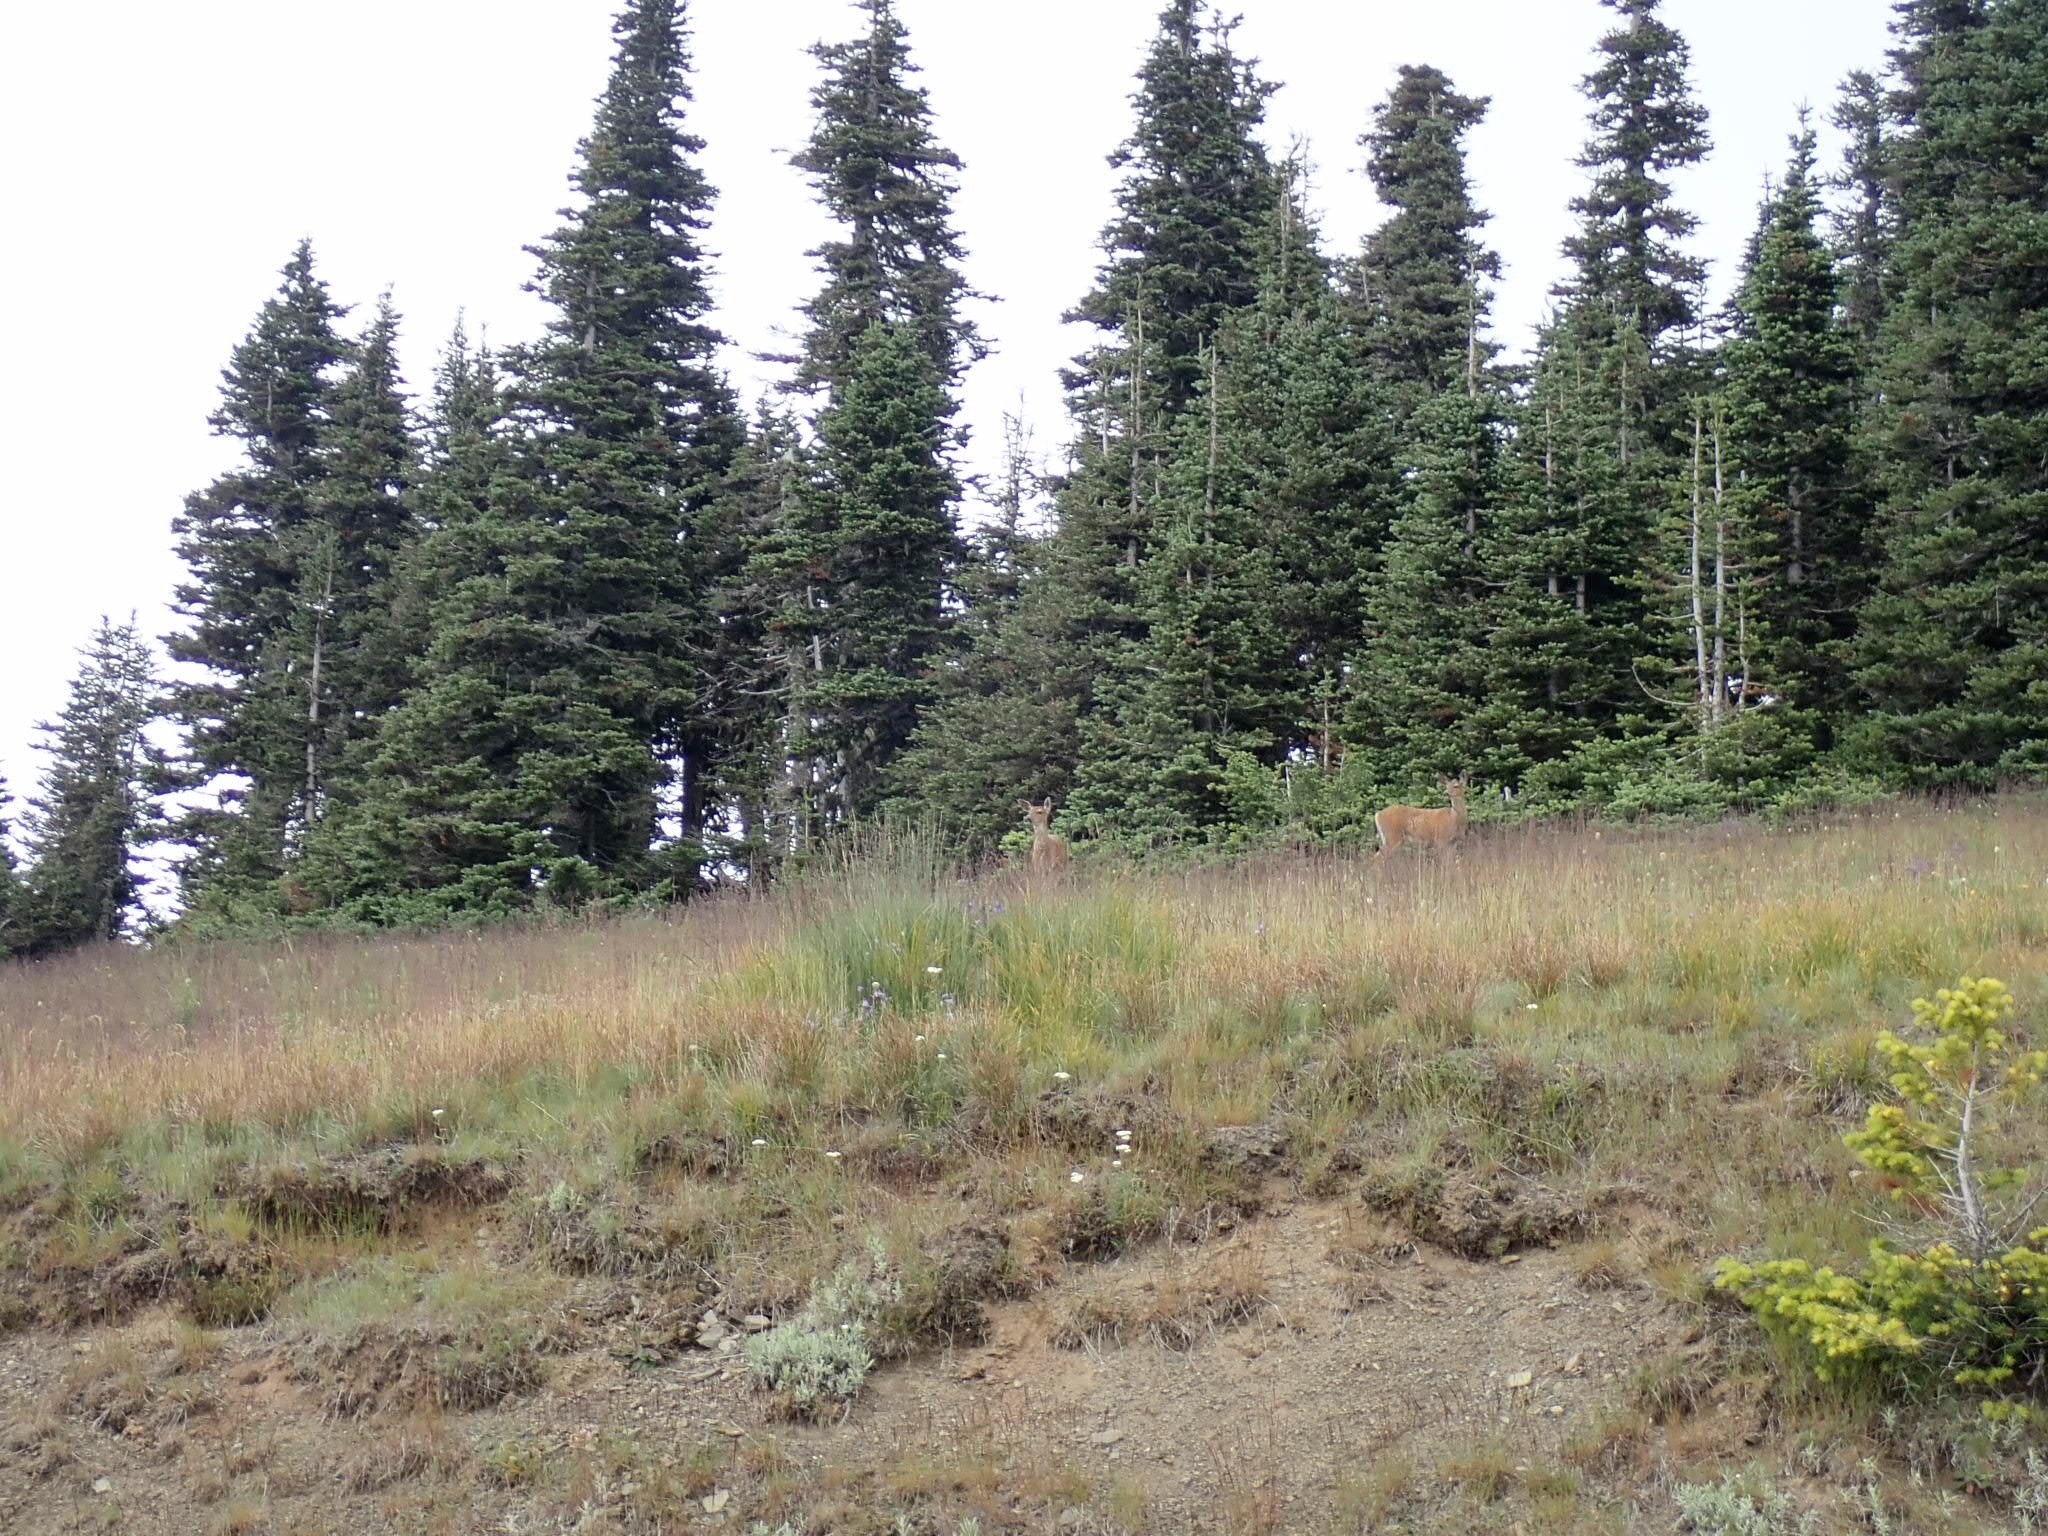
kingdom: Animalia
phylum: Chordata
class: Mammalia
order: Artiodactyla
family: Cervidae
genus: Odocoileus
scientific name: Odocoileus hemionus
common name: Mule deer
